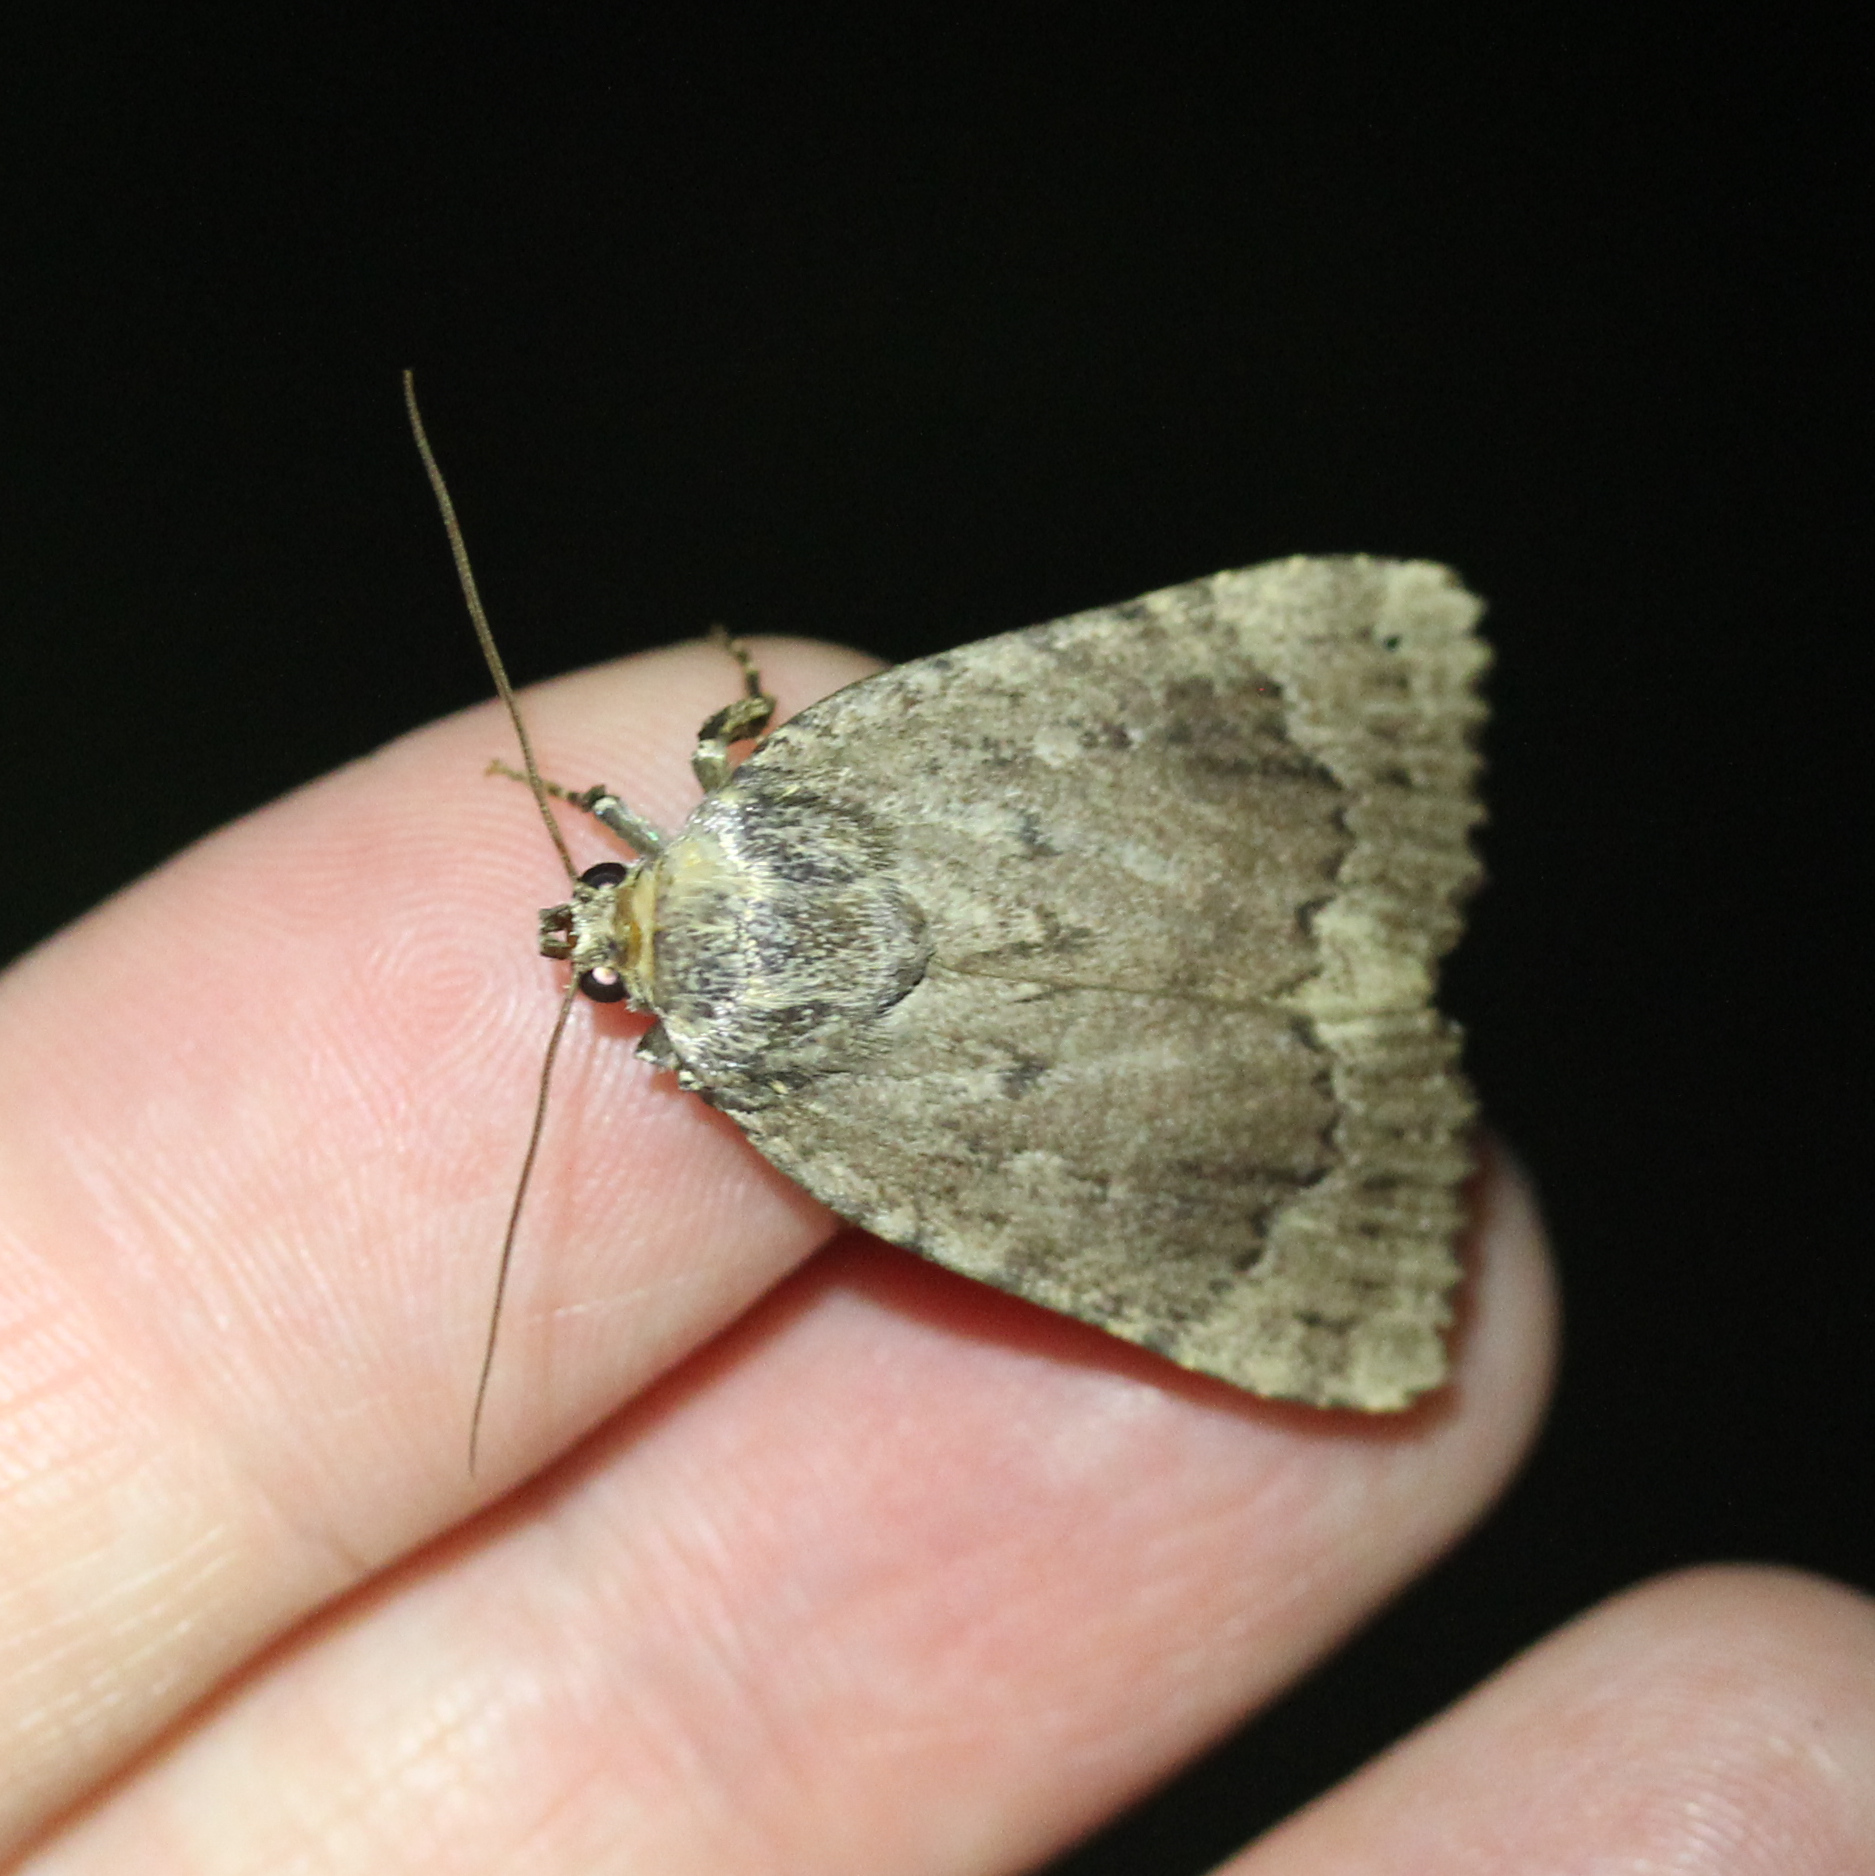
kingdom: Animalia
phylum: Arthropoda
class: Insecta
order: Lepidoptera
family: Noctuidae
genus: Amphipyra
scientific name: Amphipyra pyramidoides
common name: American copper underwing
